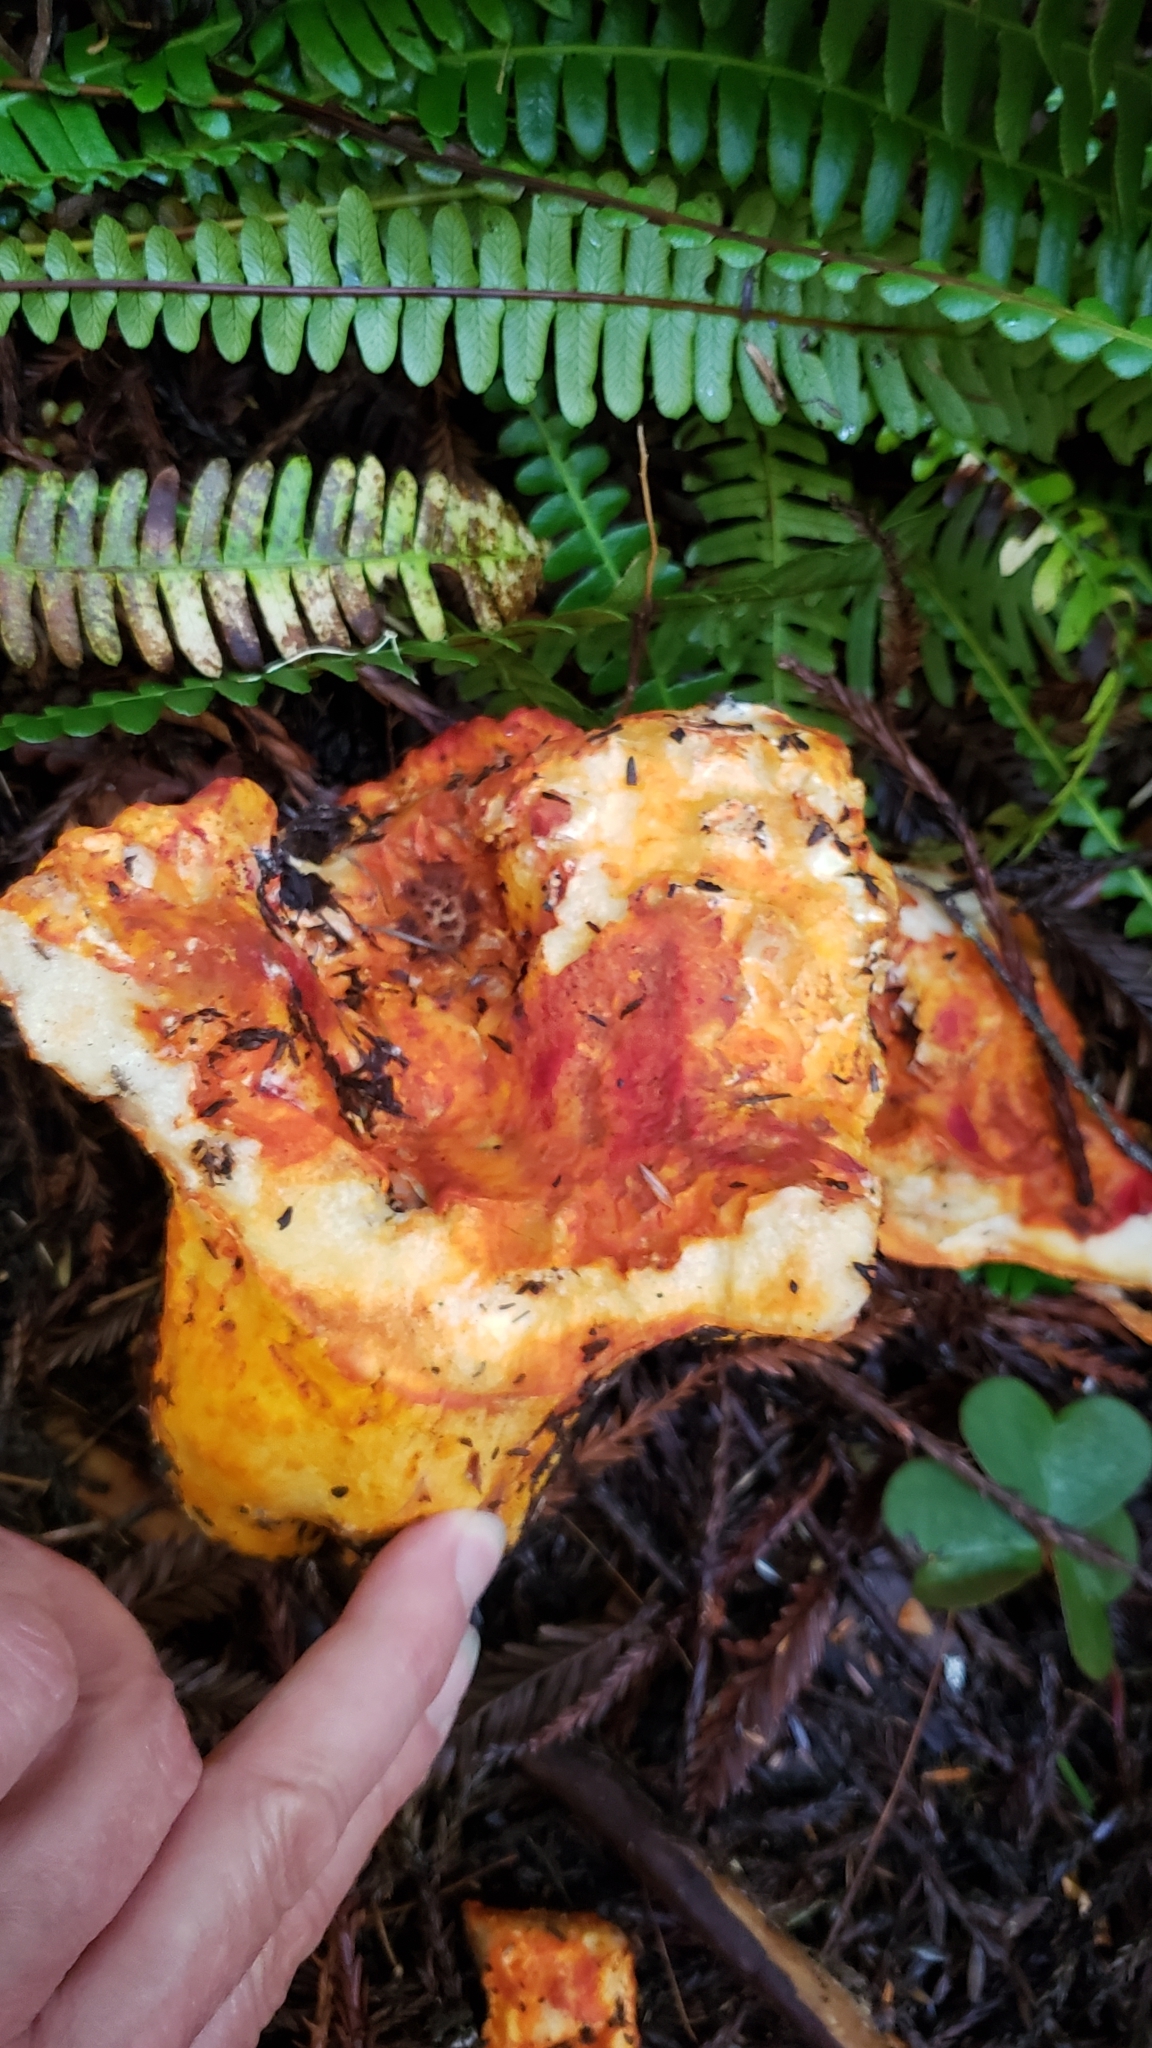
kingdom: Fungi
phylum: Ascomycota
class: Sordariomycetes
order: Hypocreales
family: Hypocreaceae
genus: Hypomyces
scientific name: Hypomyces lactifluorum
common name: Lobster mushroom
